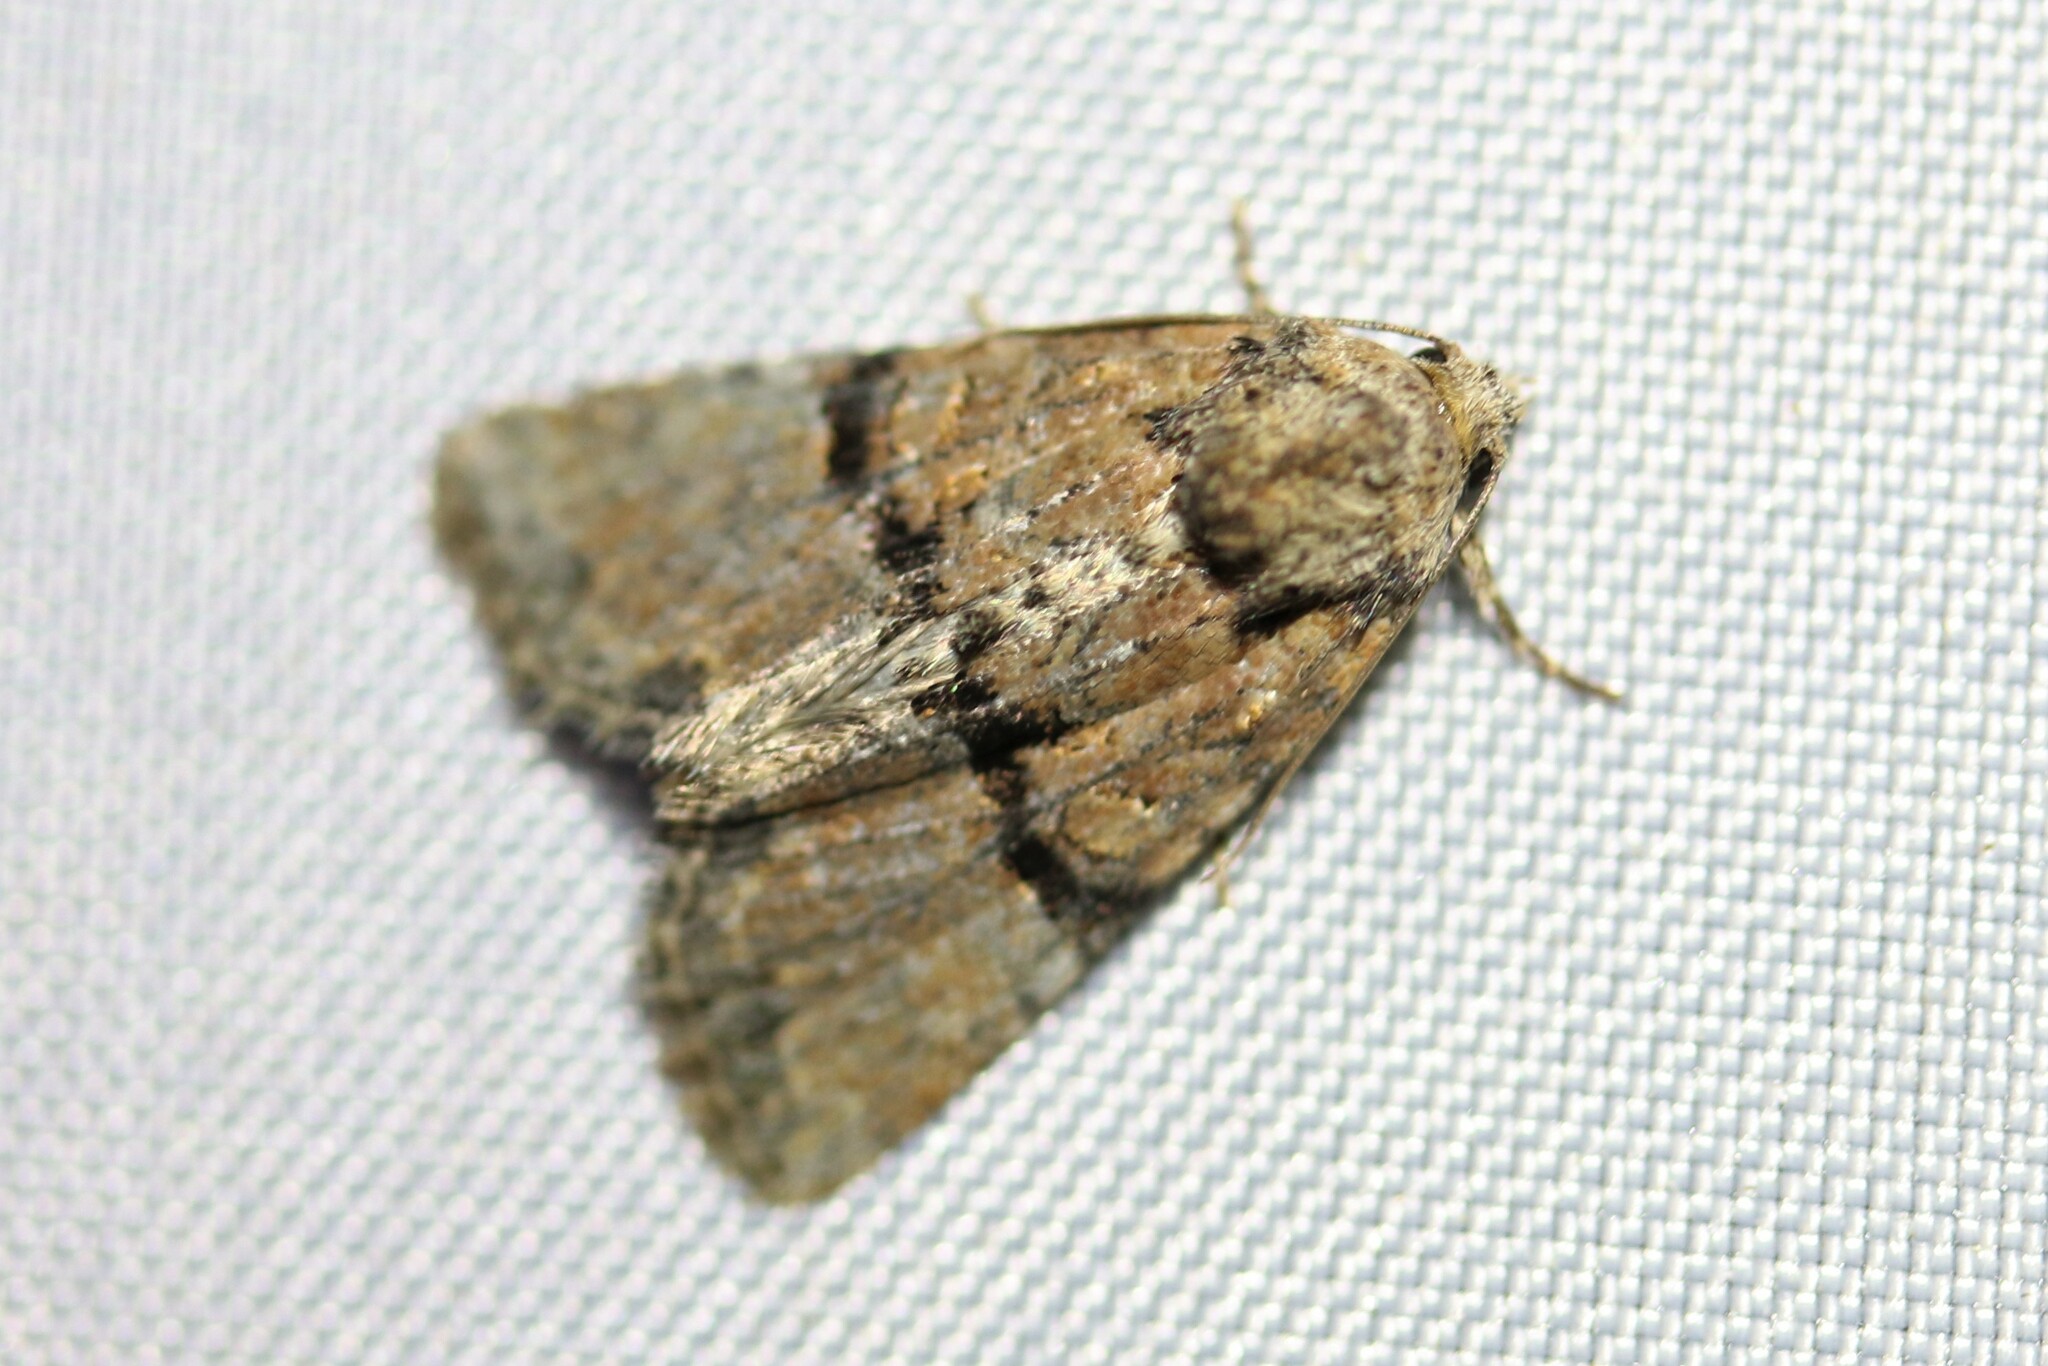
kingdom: Animalia
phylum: Arthropoda
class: Insecta
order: Lepidoptera
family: Noctuidae
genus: Mesoligia
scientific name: Mesoligia furuncula
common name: Cloaked minor
